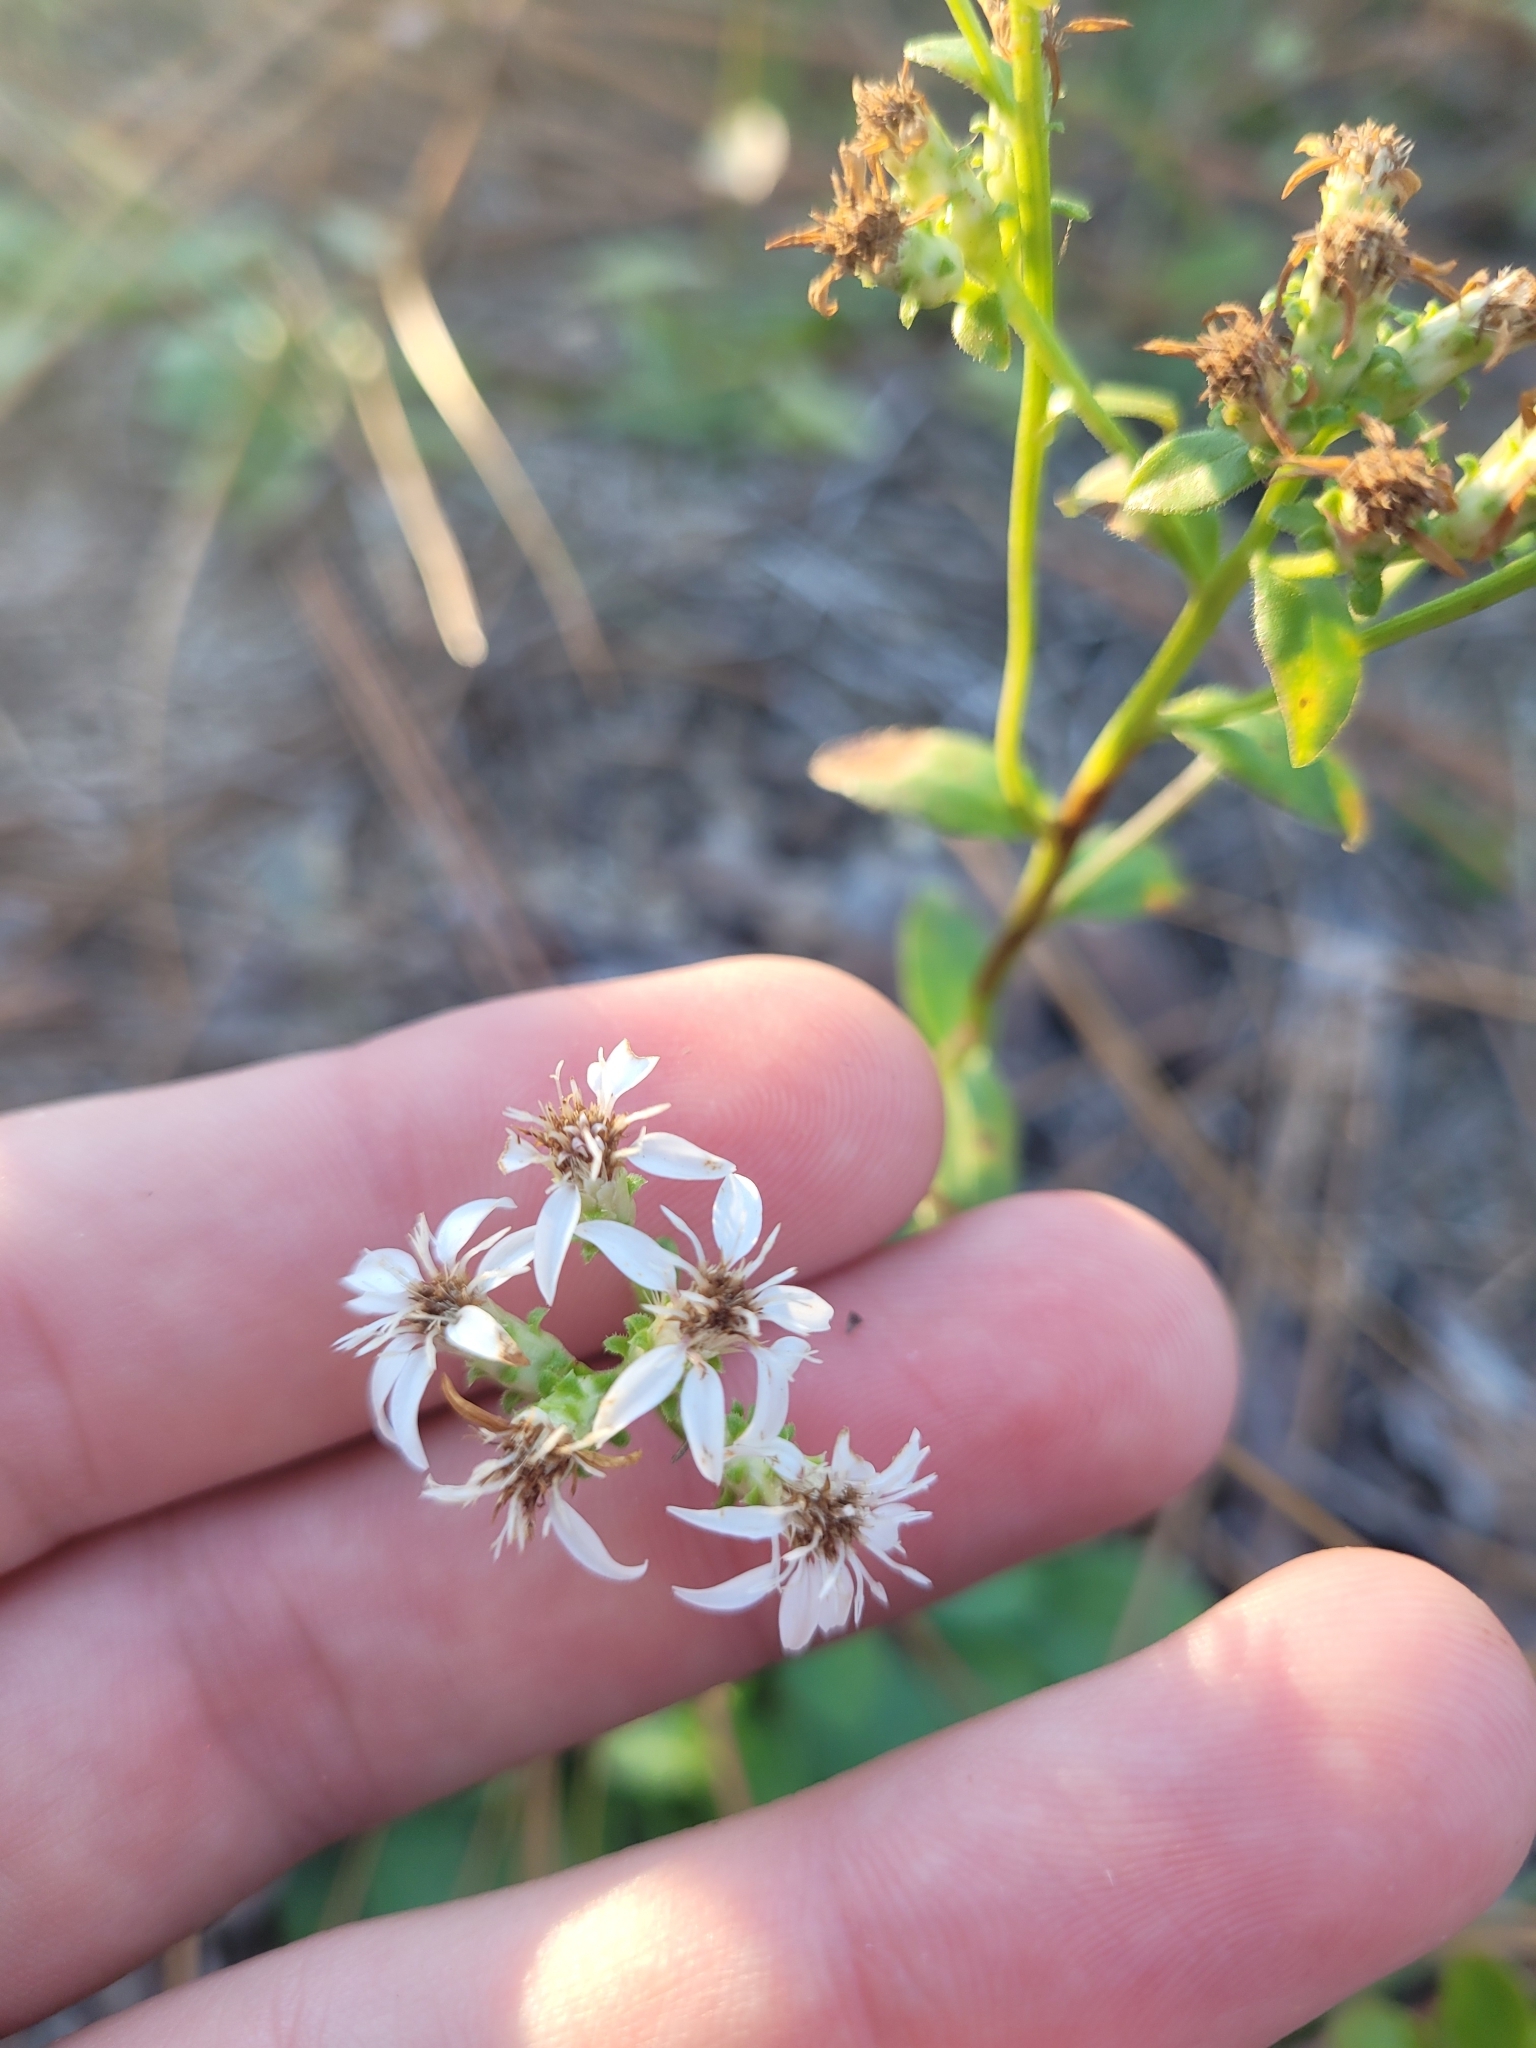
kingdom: Plantae
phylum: Tracheophyta
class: Magnoliopsida
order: Asterales
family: Asteraceae
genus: Sericocarpus
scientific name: Sericocarpus asteroides
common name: Toothed white-top aster
